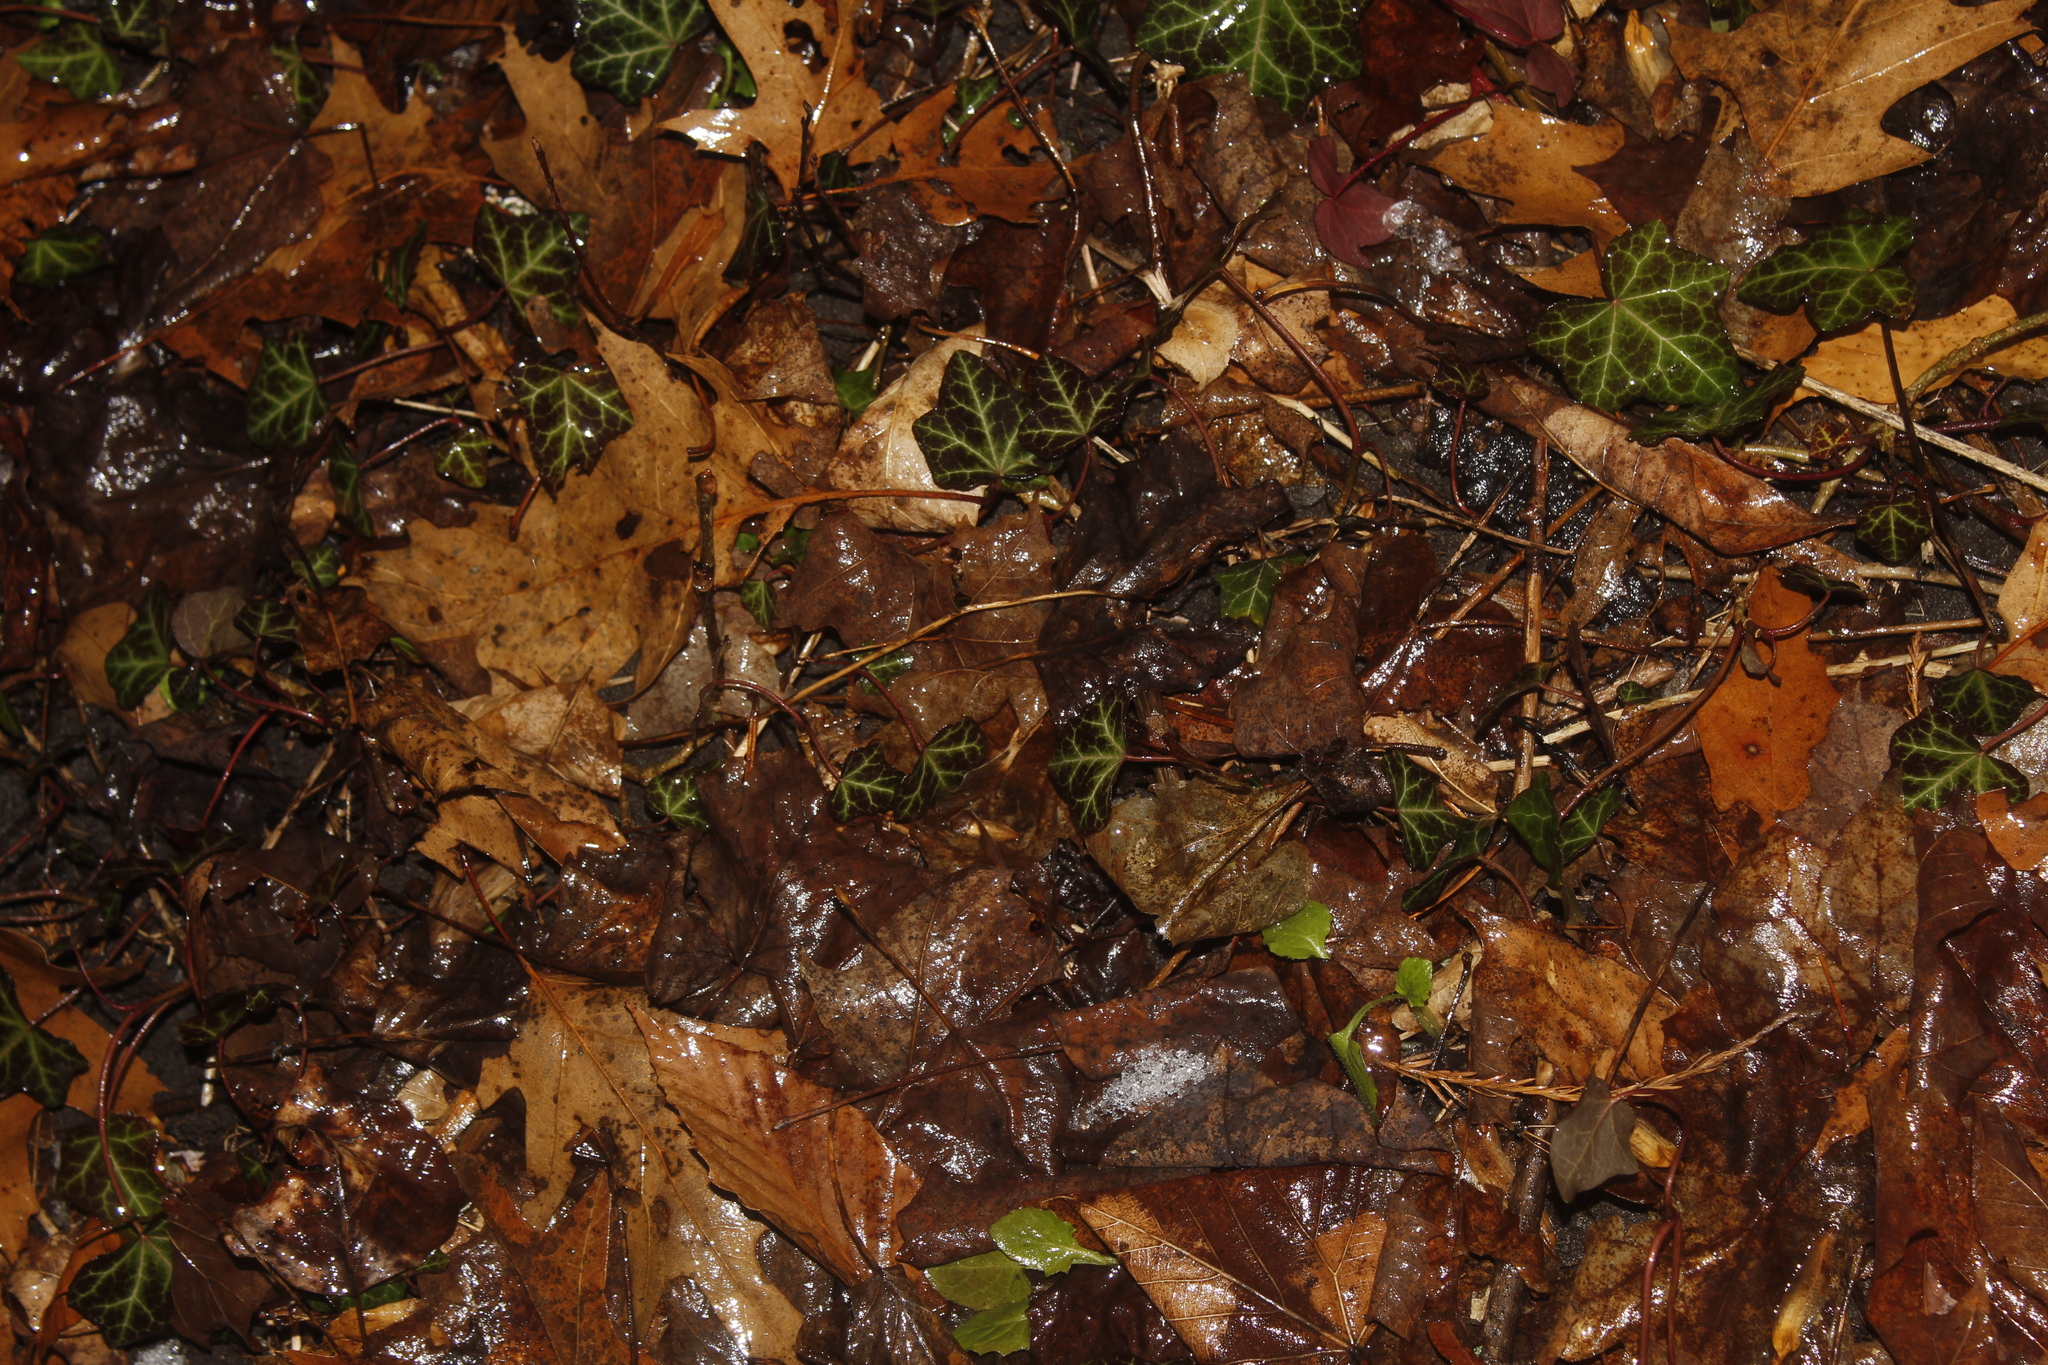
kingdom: Plantae
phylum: Tracheophyta
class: Magnoliopsida
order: Apiales
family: Araliaceae
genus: Hedera
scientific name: Hedera helix
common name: Ivy
